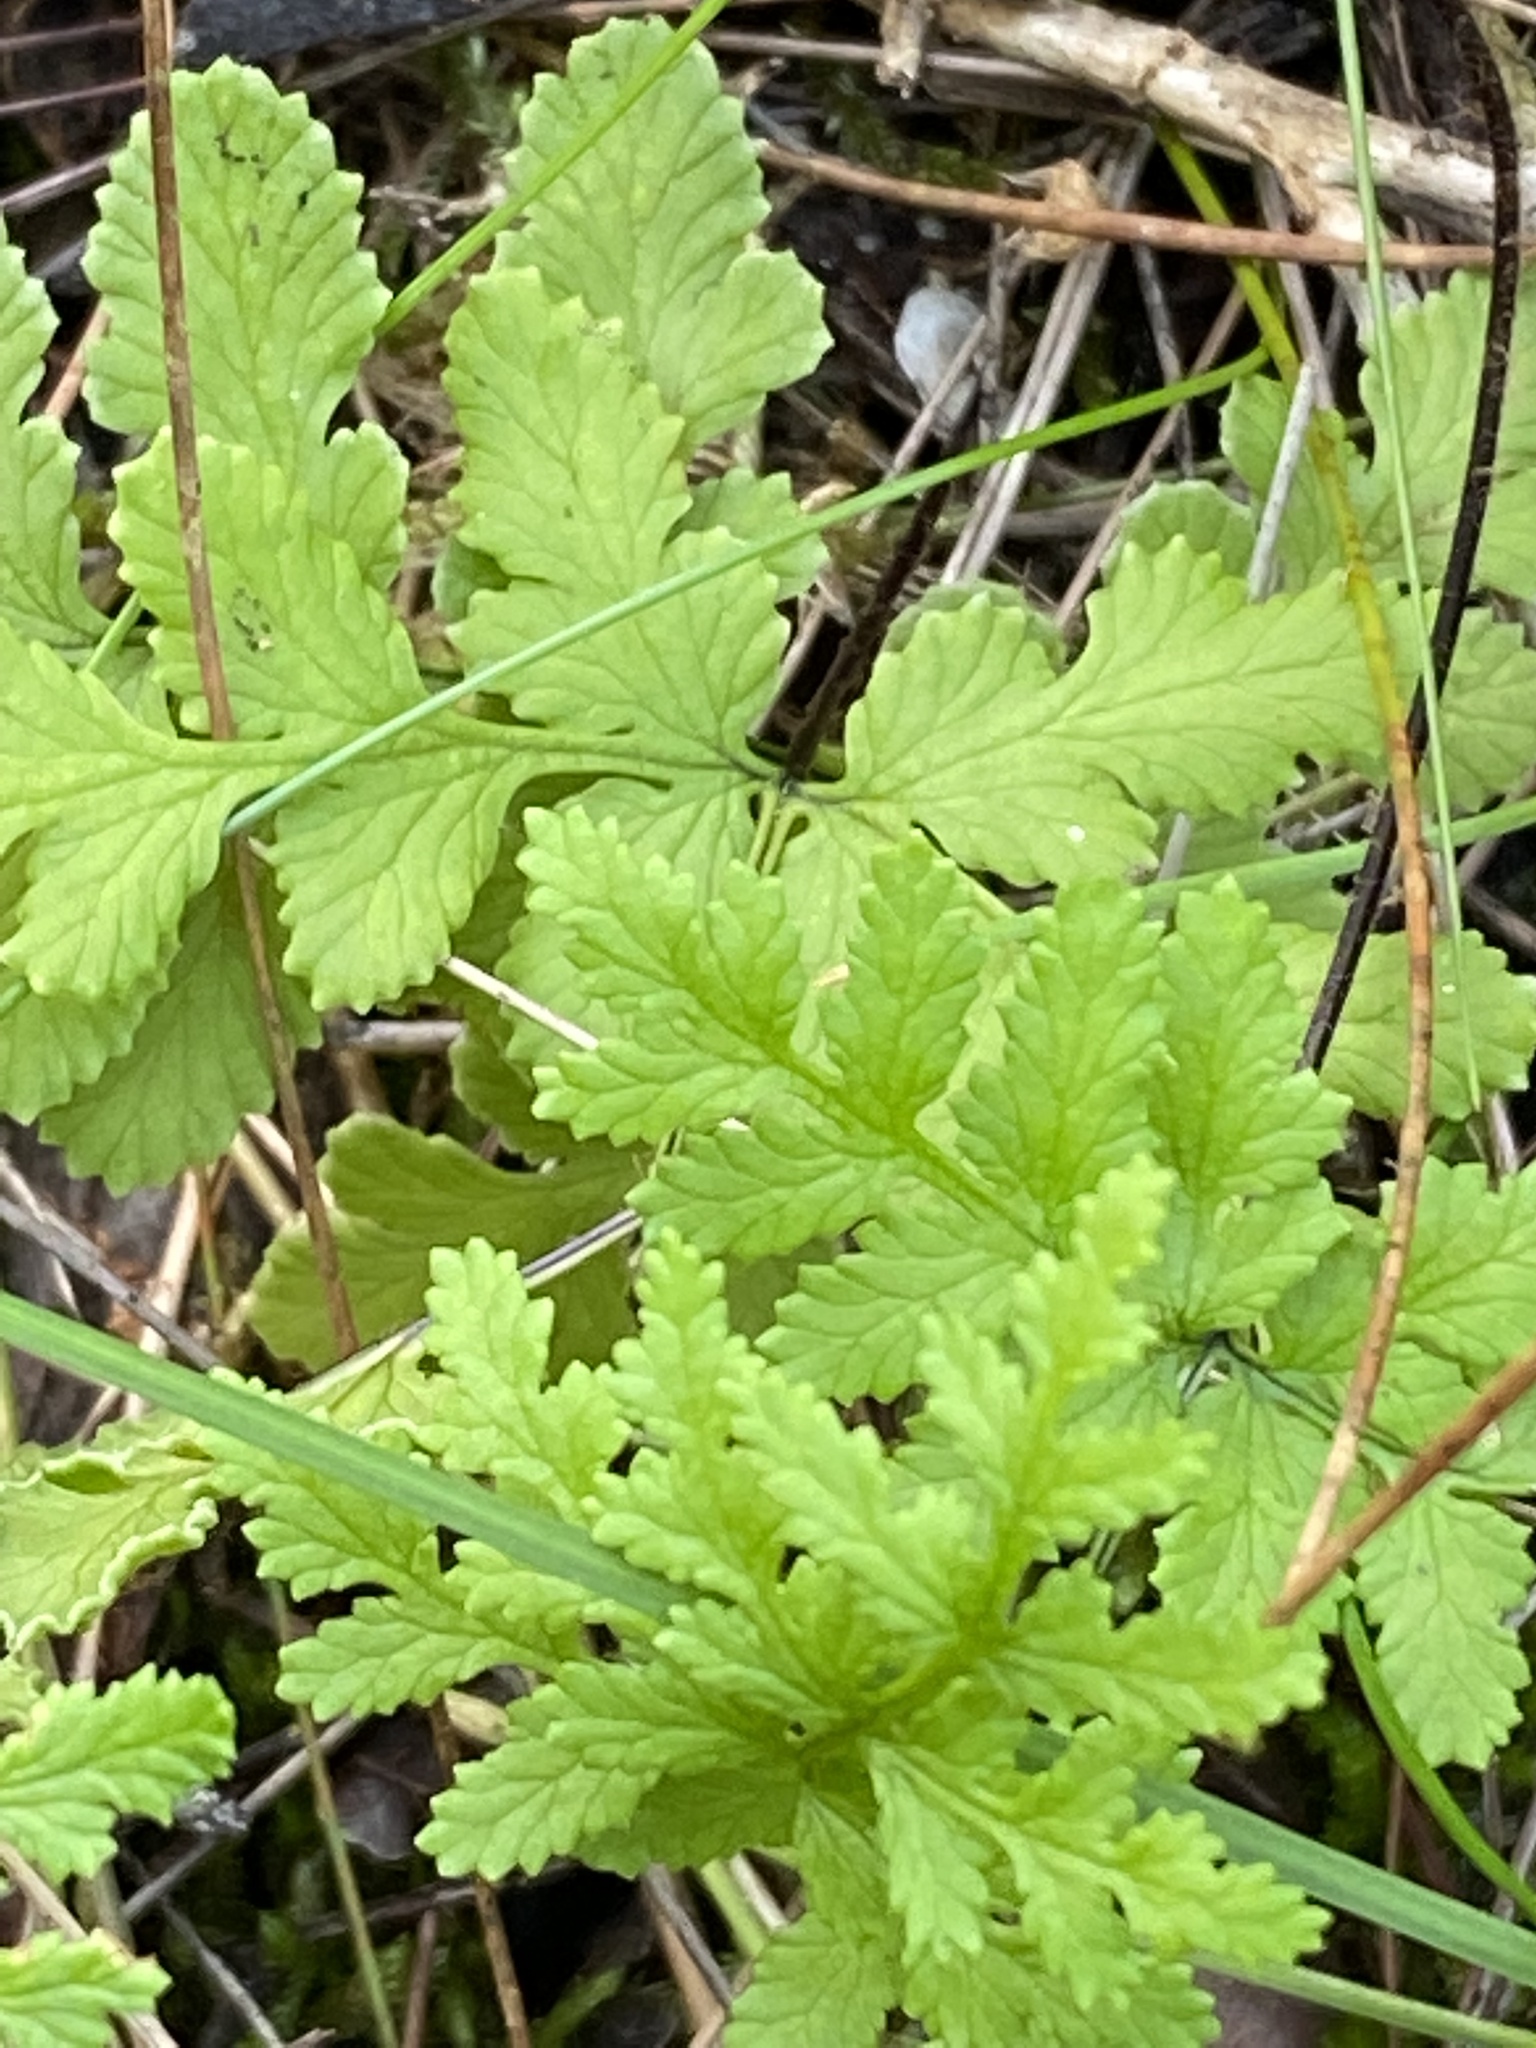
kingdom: Plantae
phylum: Tracheophyta
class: Polypodiopsida
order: Polypodiales
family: Pteridaceae
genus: Cheilanthes
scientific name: Cheilanthes capensis
